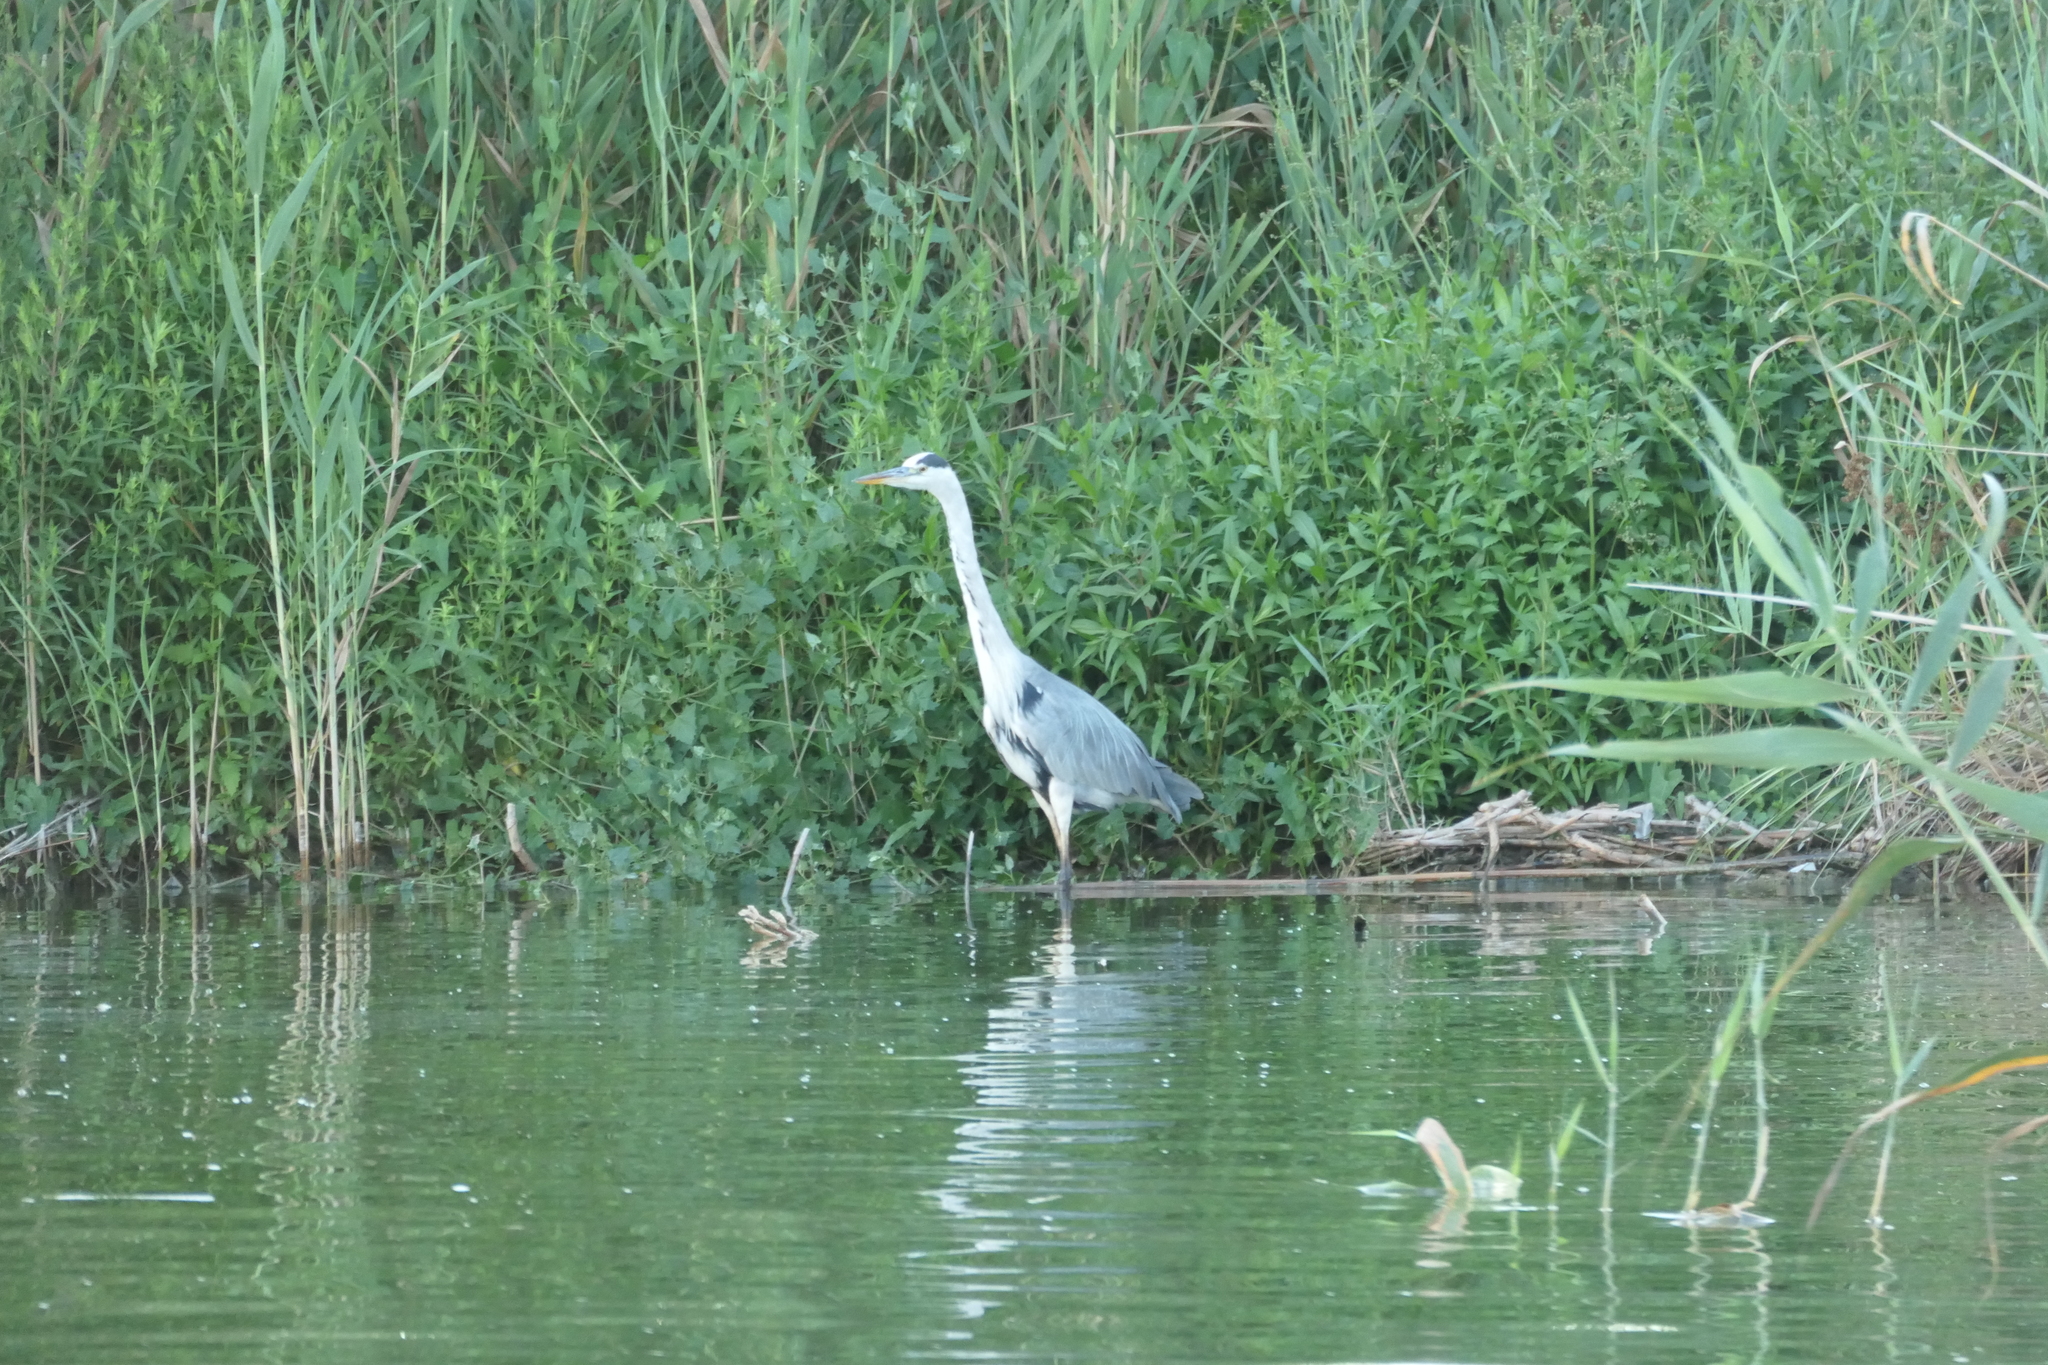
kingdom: Animalia
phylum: Chordata
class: Aves
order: Pelecaniformes
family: Ardeidae
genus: Ardea
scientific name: Ardea cinerea
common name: Grey heron
